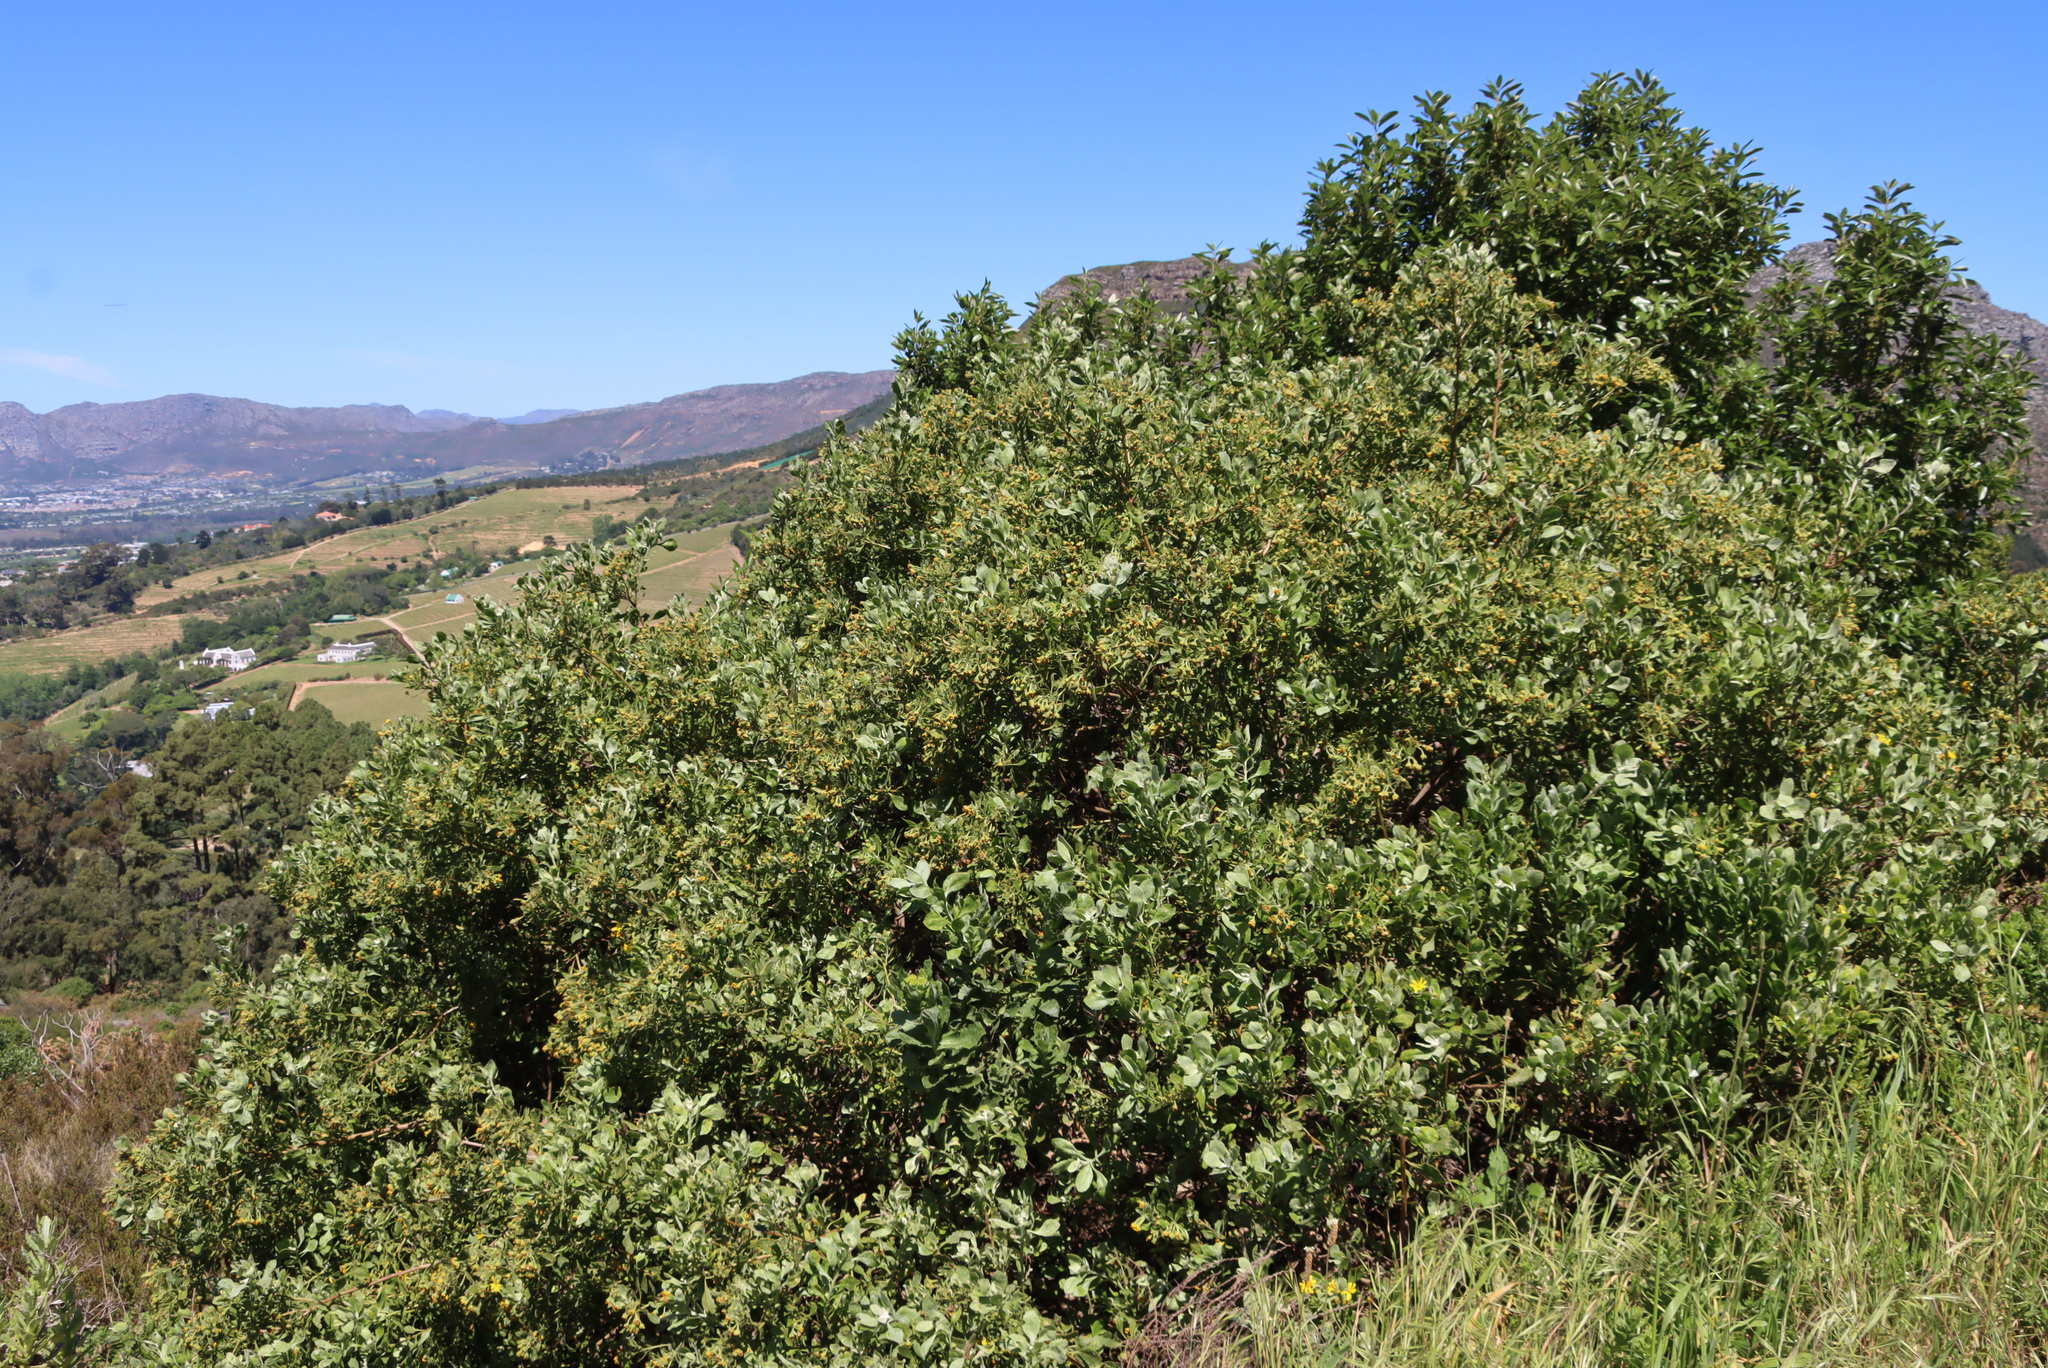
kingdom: Plantae
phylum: Tracheophyta
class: Magnoliopsida
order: Asterales
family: Asteraceae
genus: Osteospermum
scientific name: Osteospermum moniliferum
